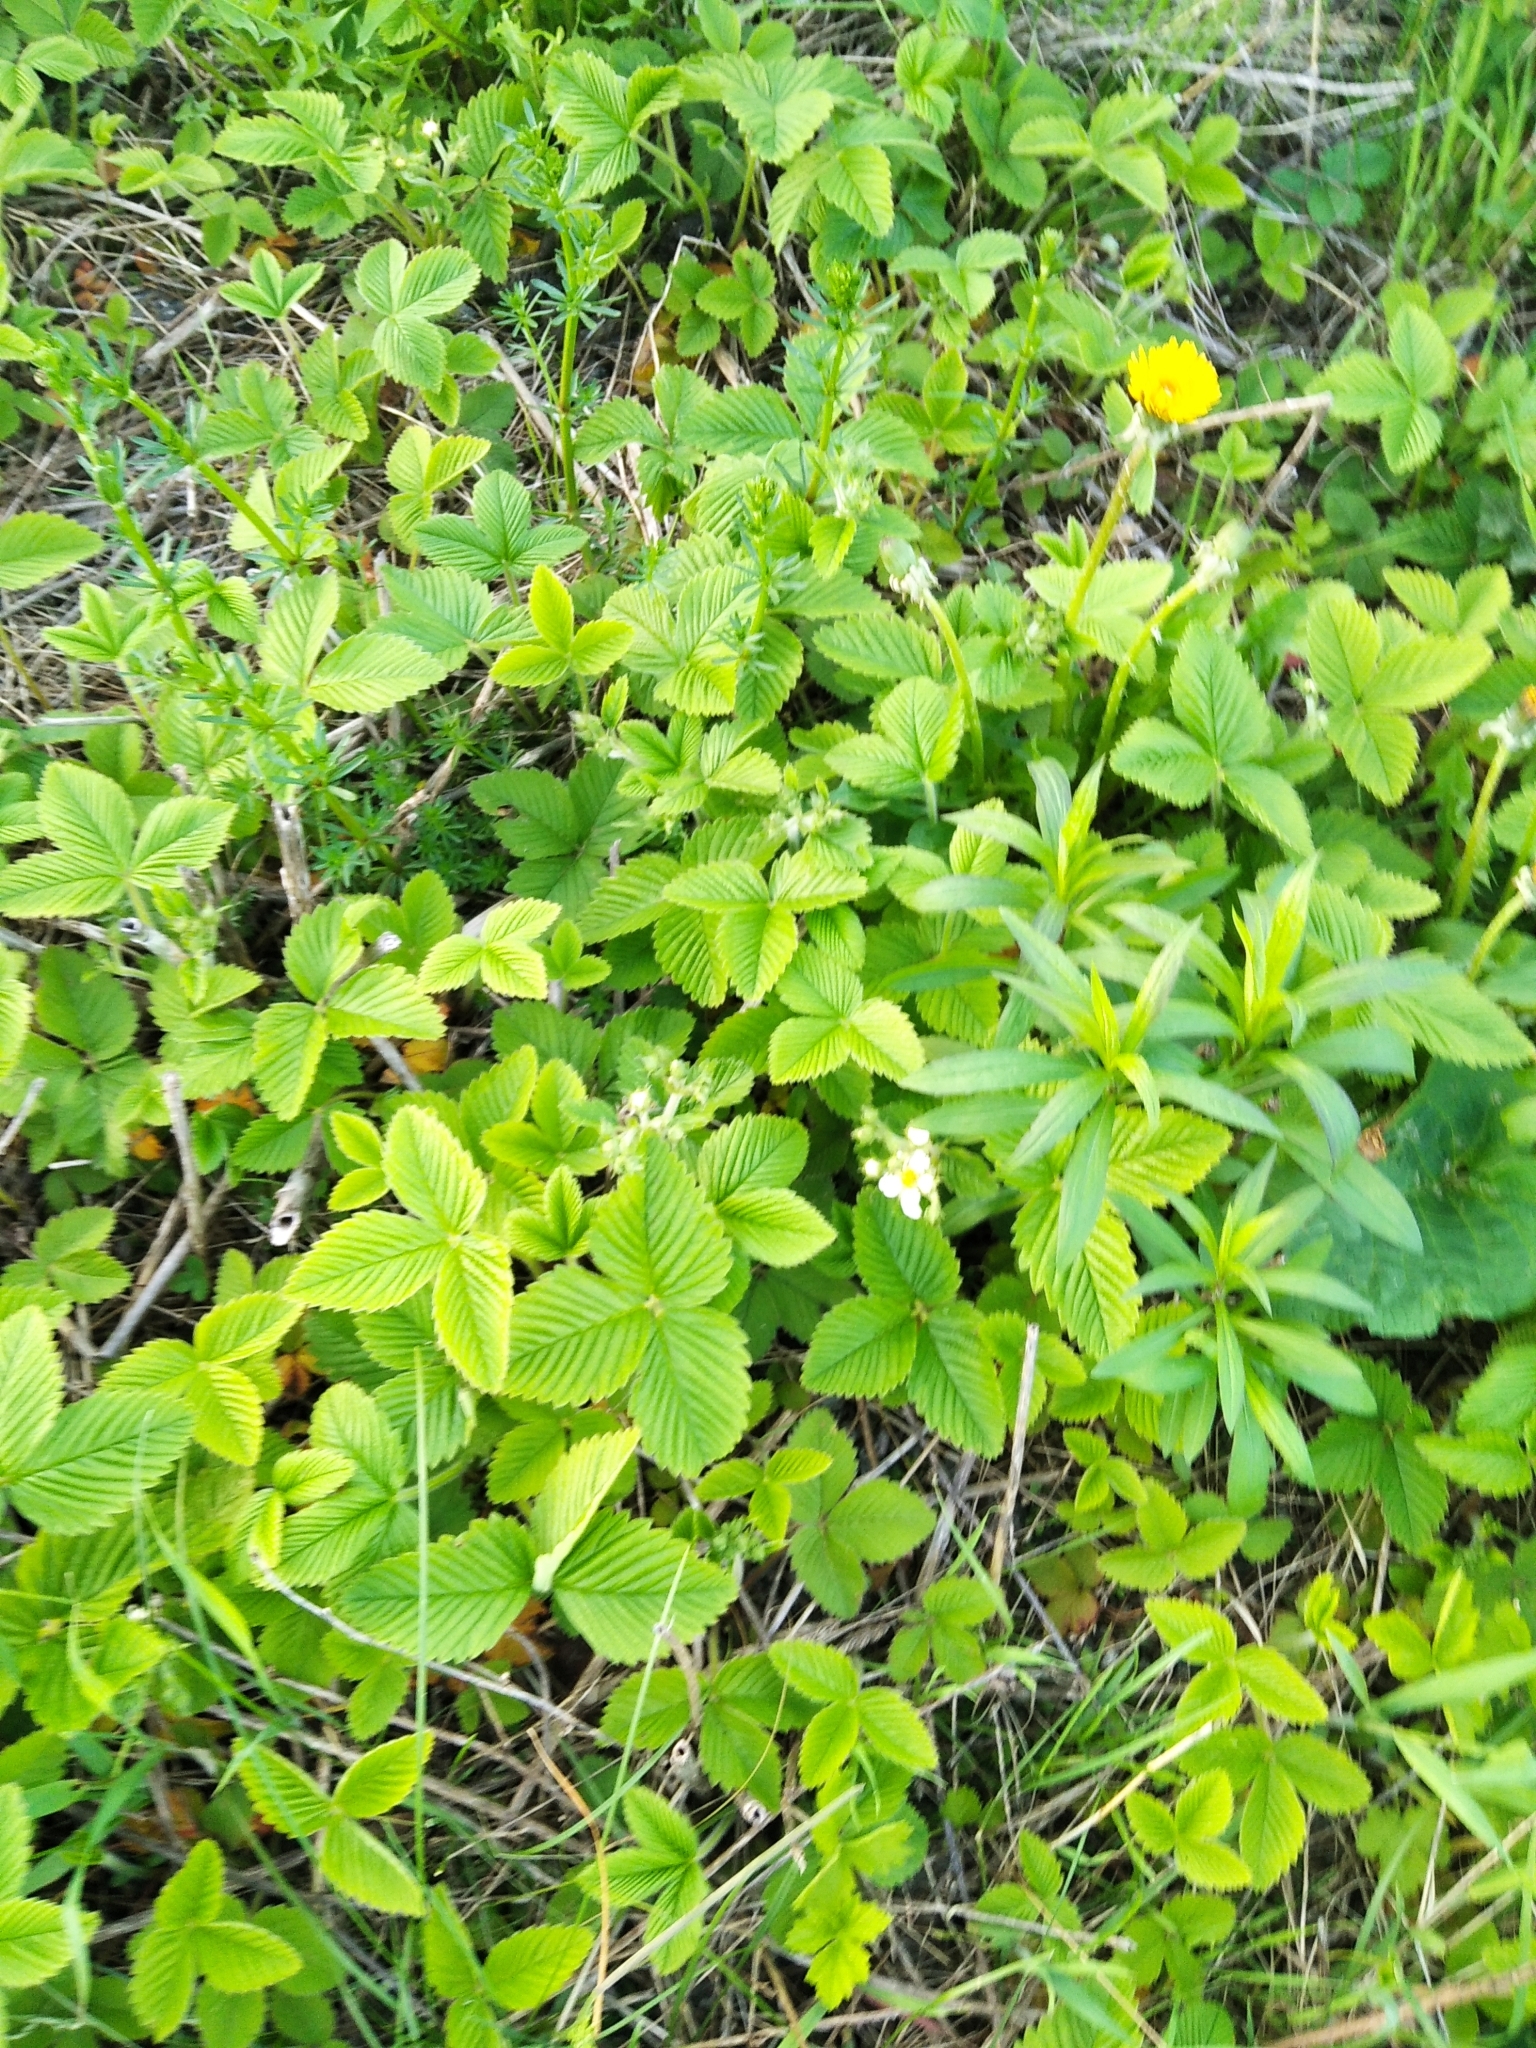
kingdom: Plantae
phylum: Tracheophyta
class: Magnoliopsida
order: Rosales
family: Rosaceae
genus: Fragaria
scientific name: Fragaria moschata
